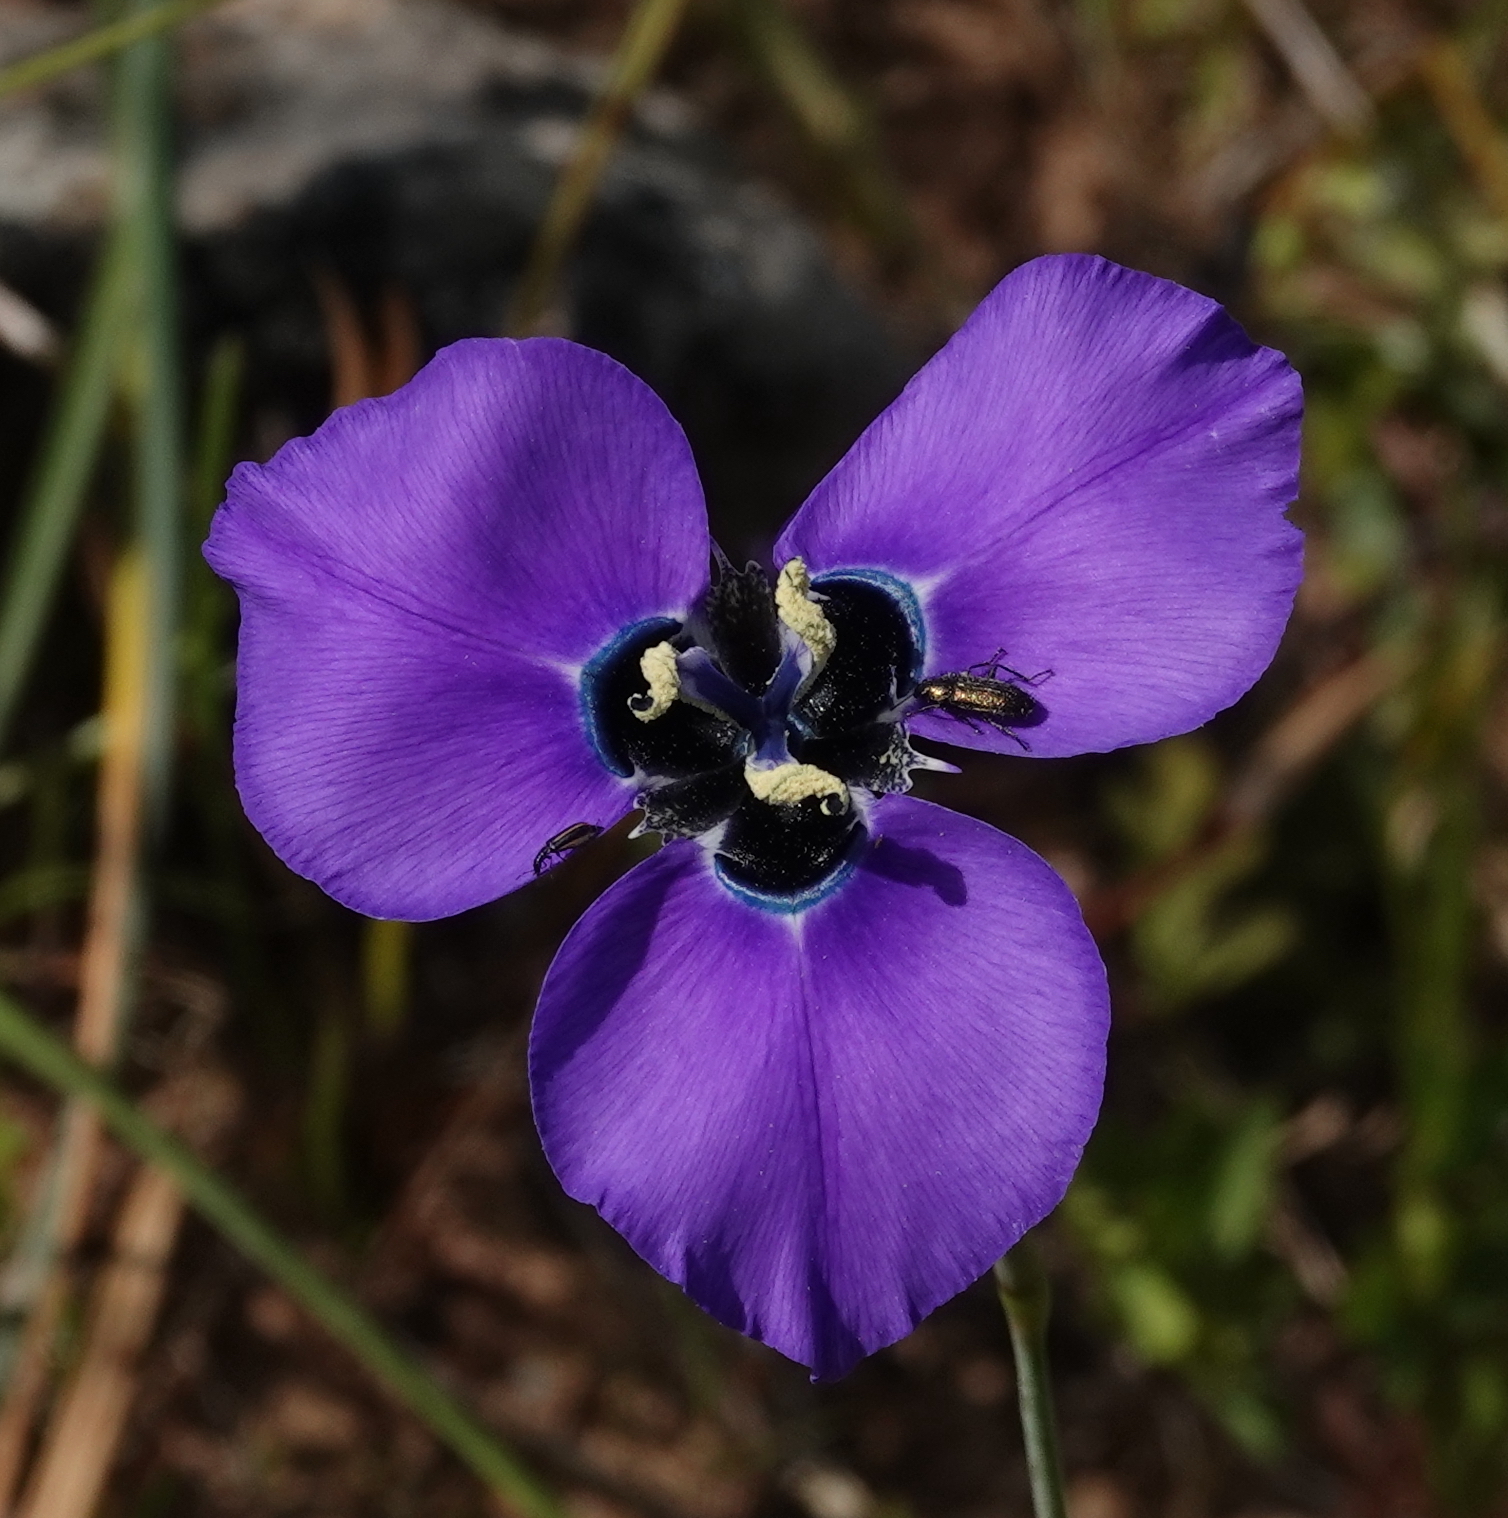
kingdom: Plantae
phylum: Tracheophyta
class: Liliopsida
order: Asparagales
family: Iridaceae
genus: Moraea
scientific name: Moraea gigandra
